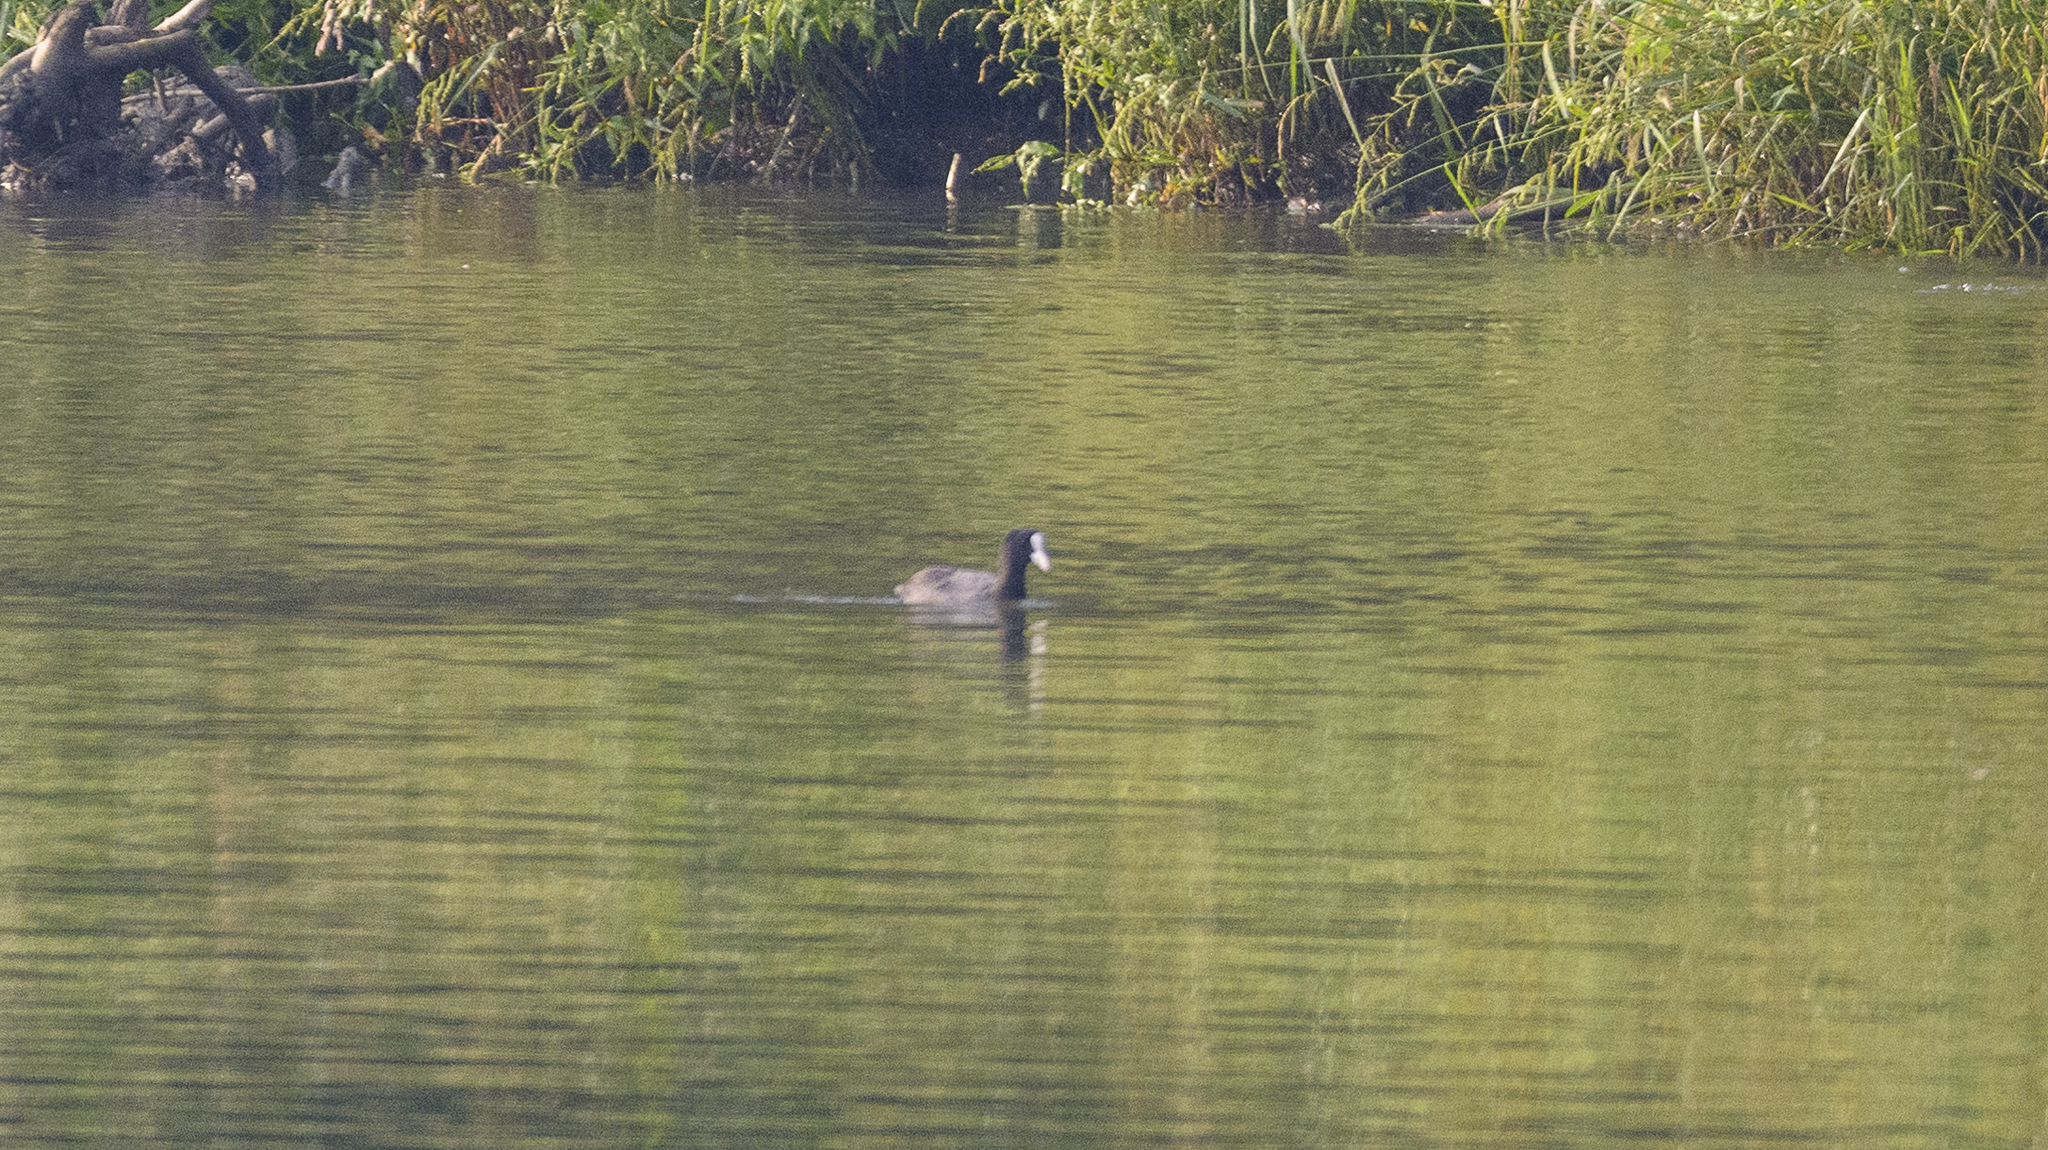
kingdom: Animalia
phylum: Chordata
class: Aves
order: Gruiformes
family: Rallidae
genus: Fulica
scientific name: Fulica atra
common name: Eurasian coot
